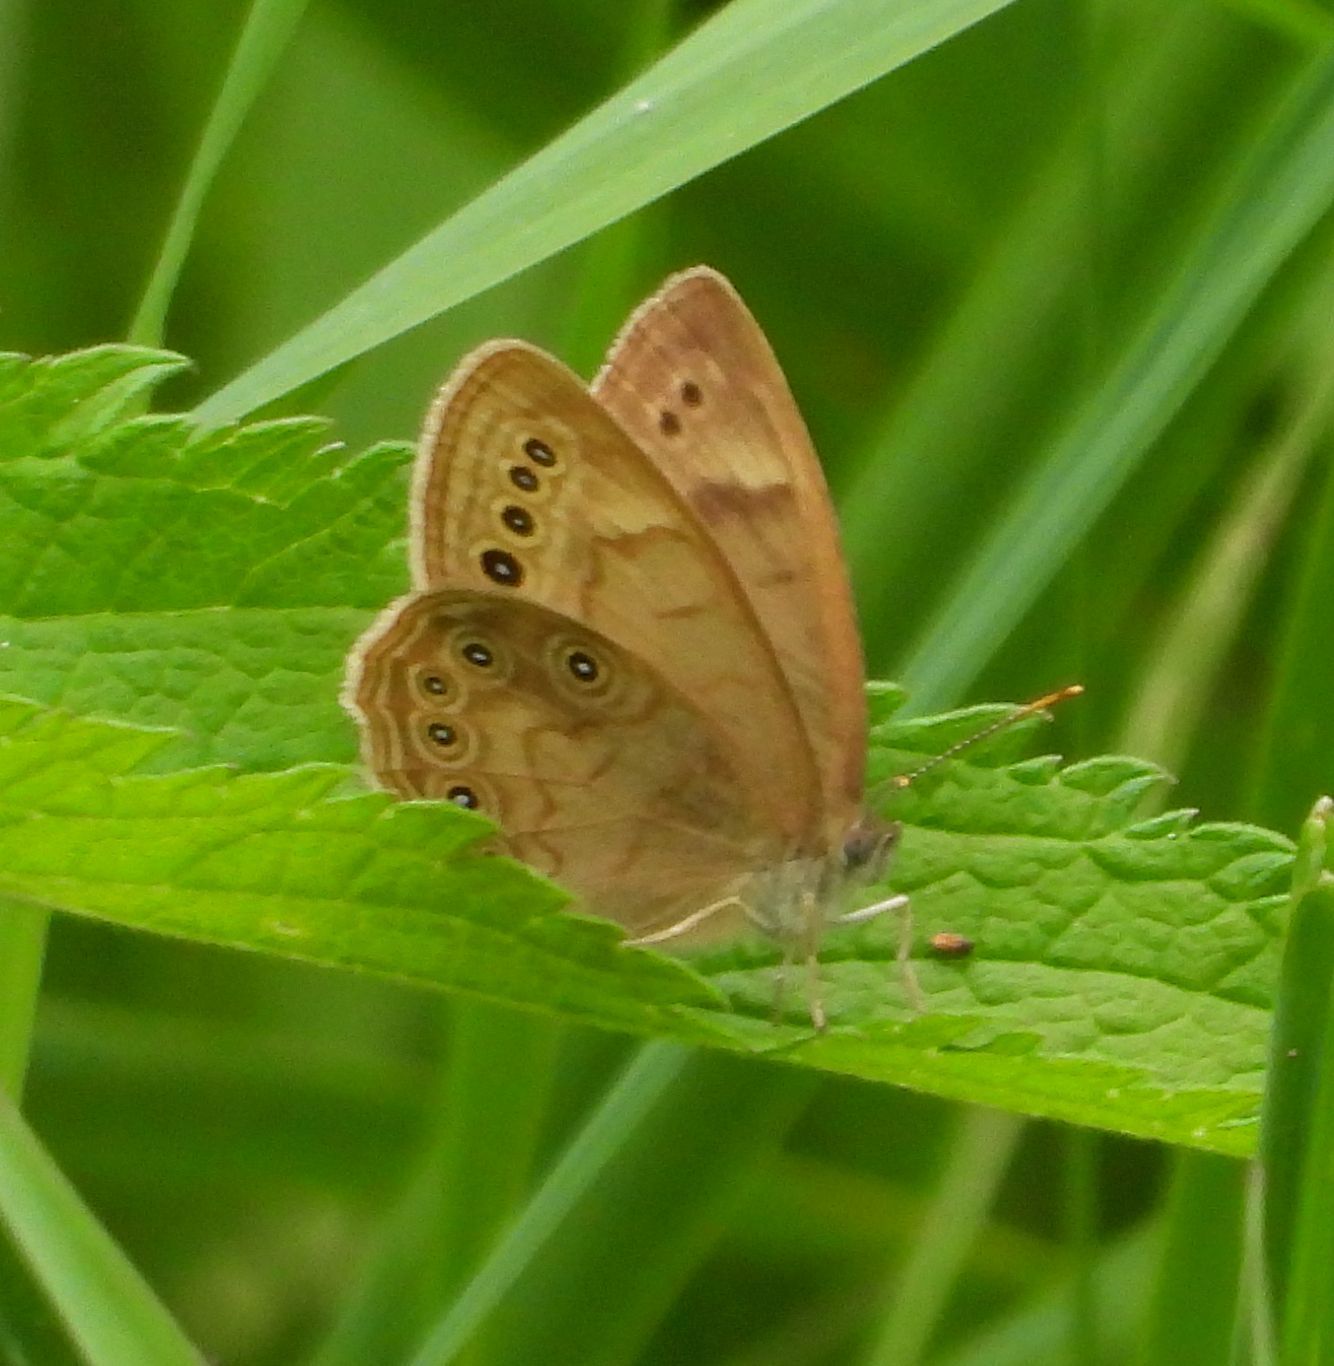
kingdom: Animalia
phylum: Arthropoda
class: Insecta
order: Lepidoptera
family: Nymphalidae
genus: Lethe
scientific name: Lethe eurydice
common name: Eyed brown
